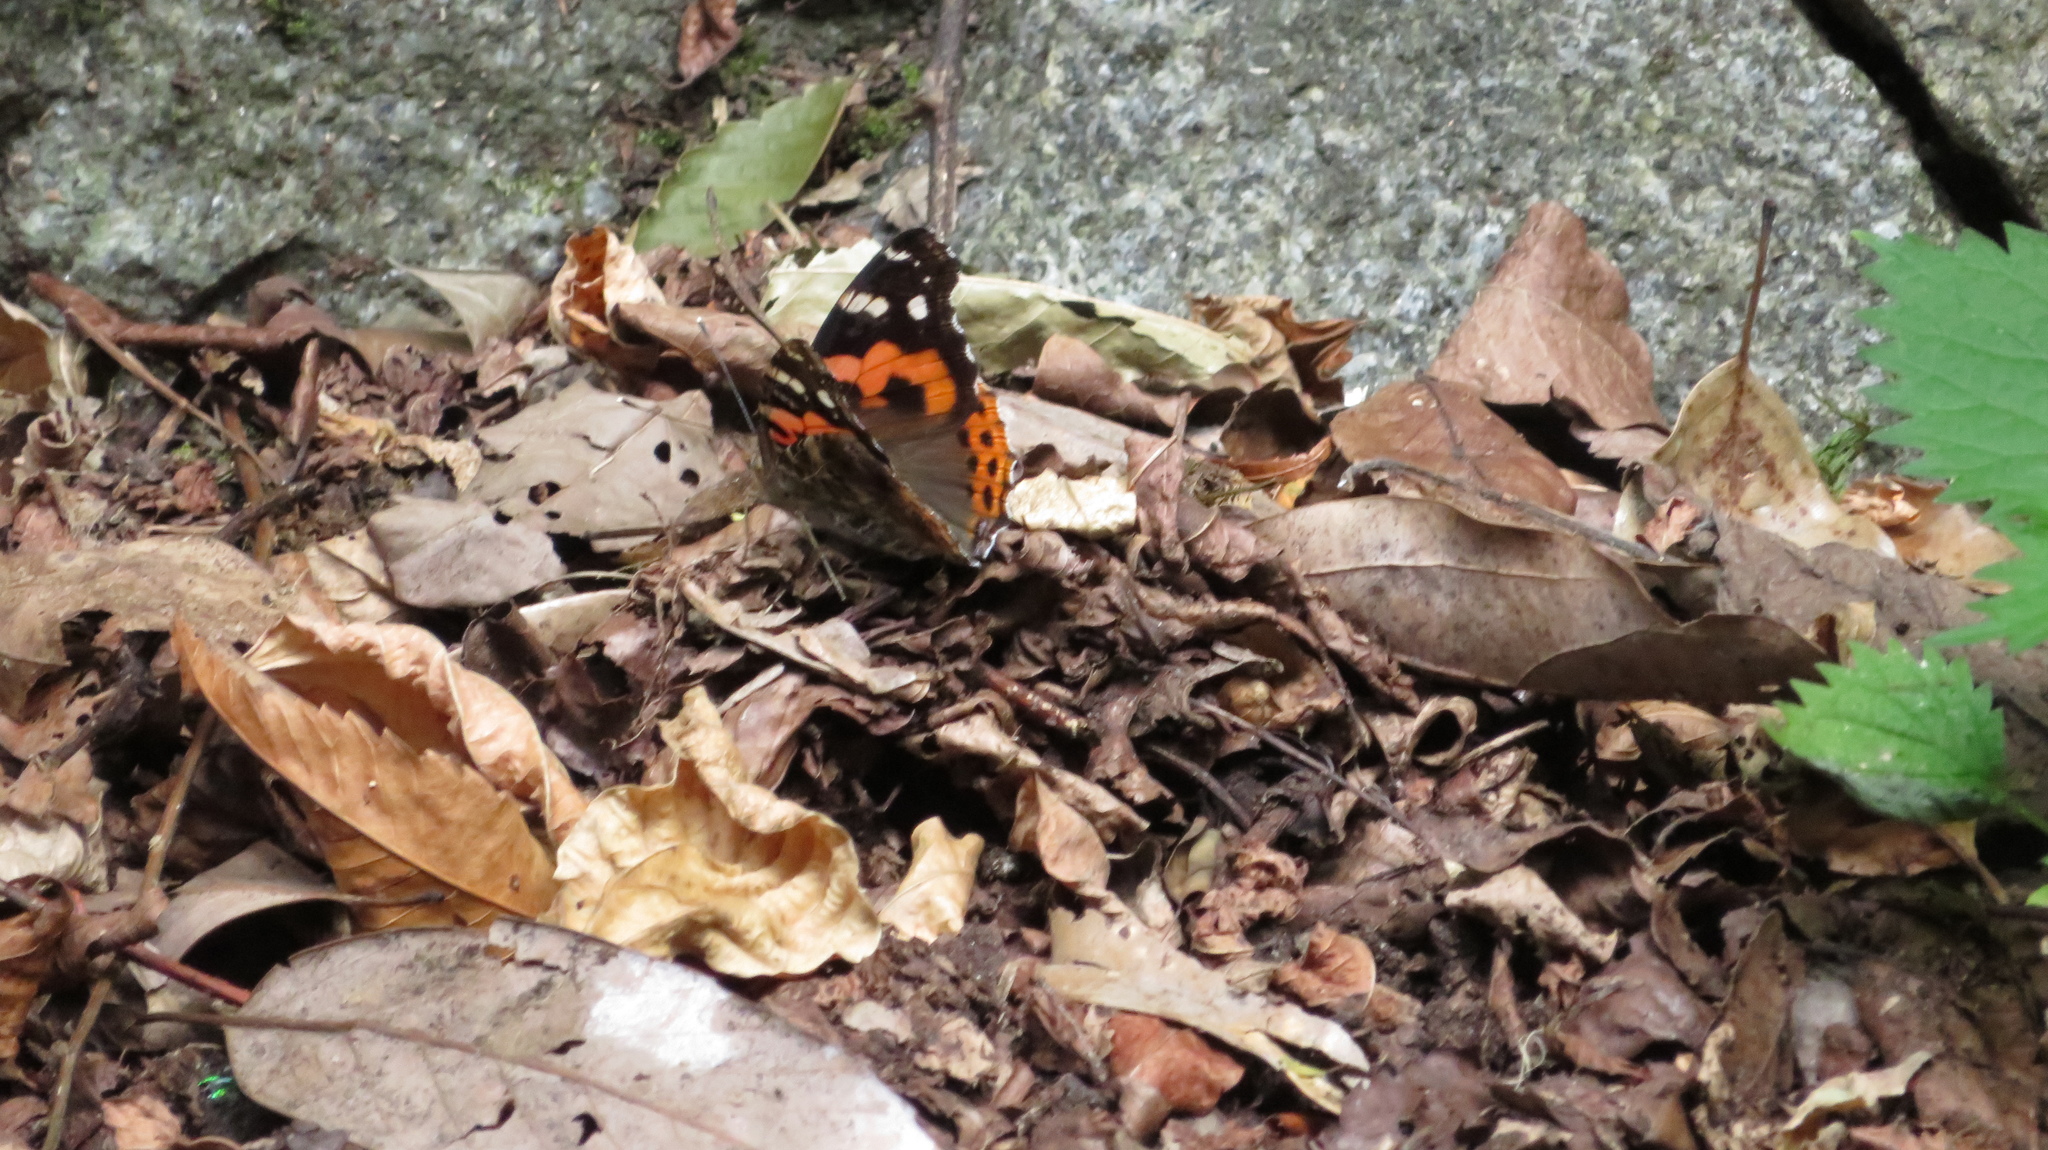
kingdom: Animalia
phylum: Arthropoda
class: Insecta
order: Lepidoptera
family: Nymphalidae
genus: Vanessa
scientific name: Vanessa indica
